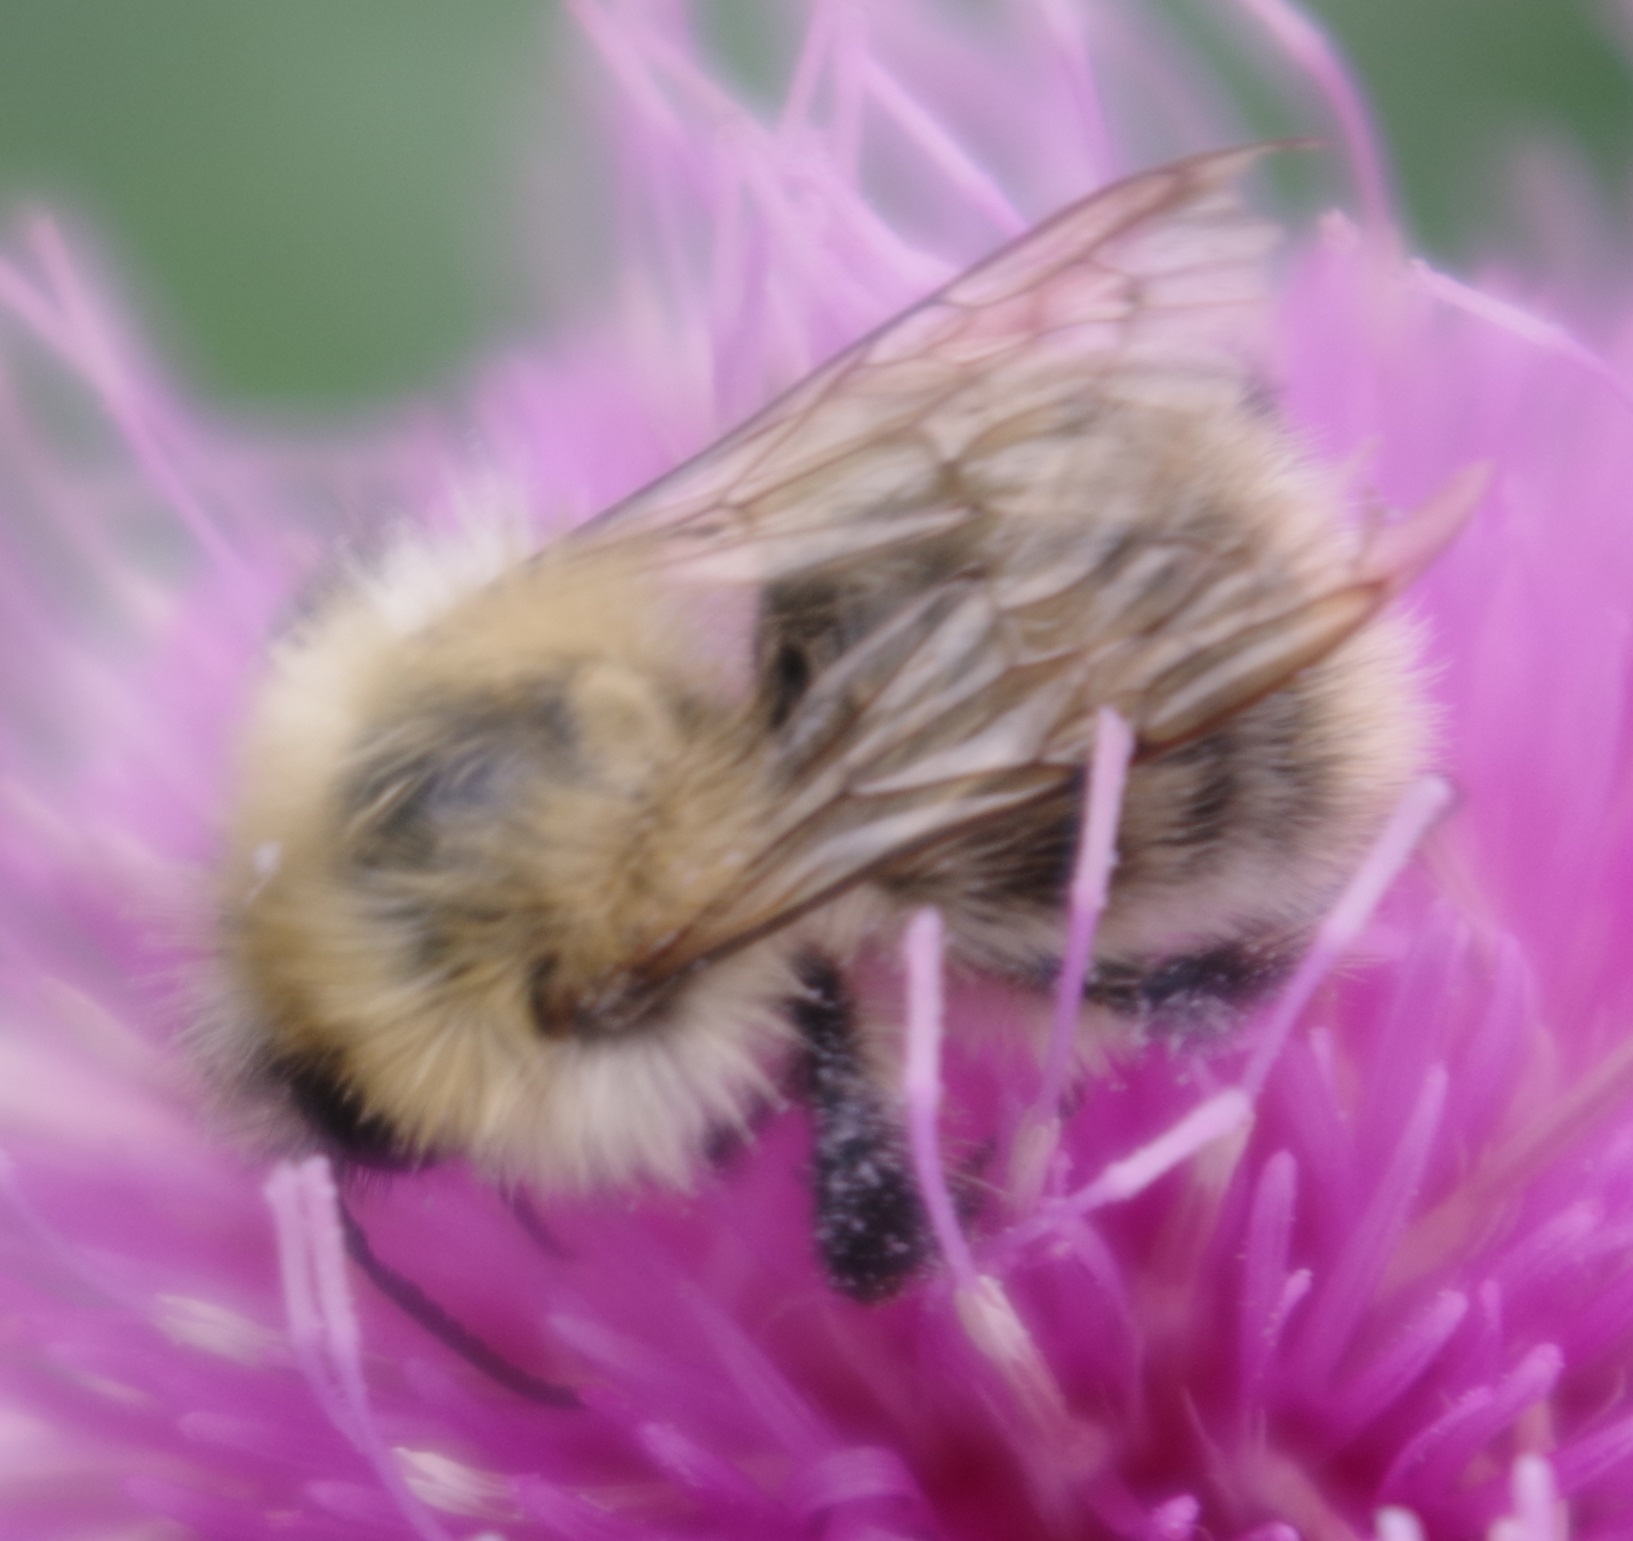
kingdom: Animalia
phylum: Arthropoda
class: Insecta
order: Hymenoptera
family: Apidae
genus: Bombus
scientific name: Bombus pascuorum
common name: Common carder bee
